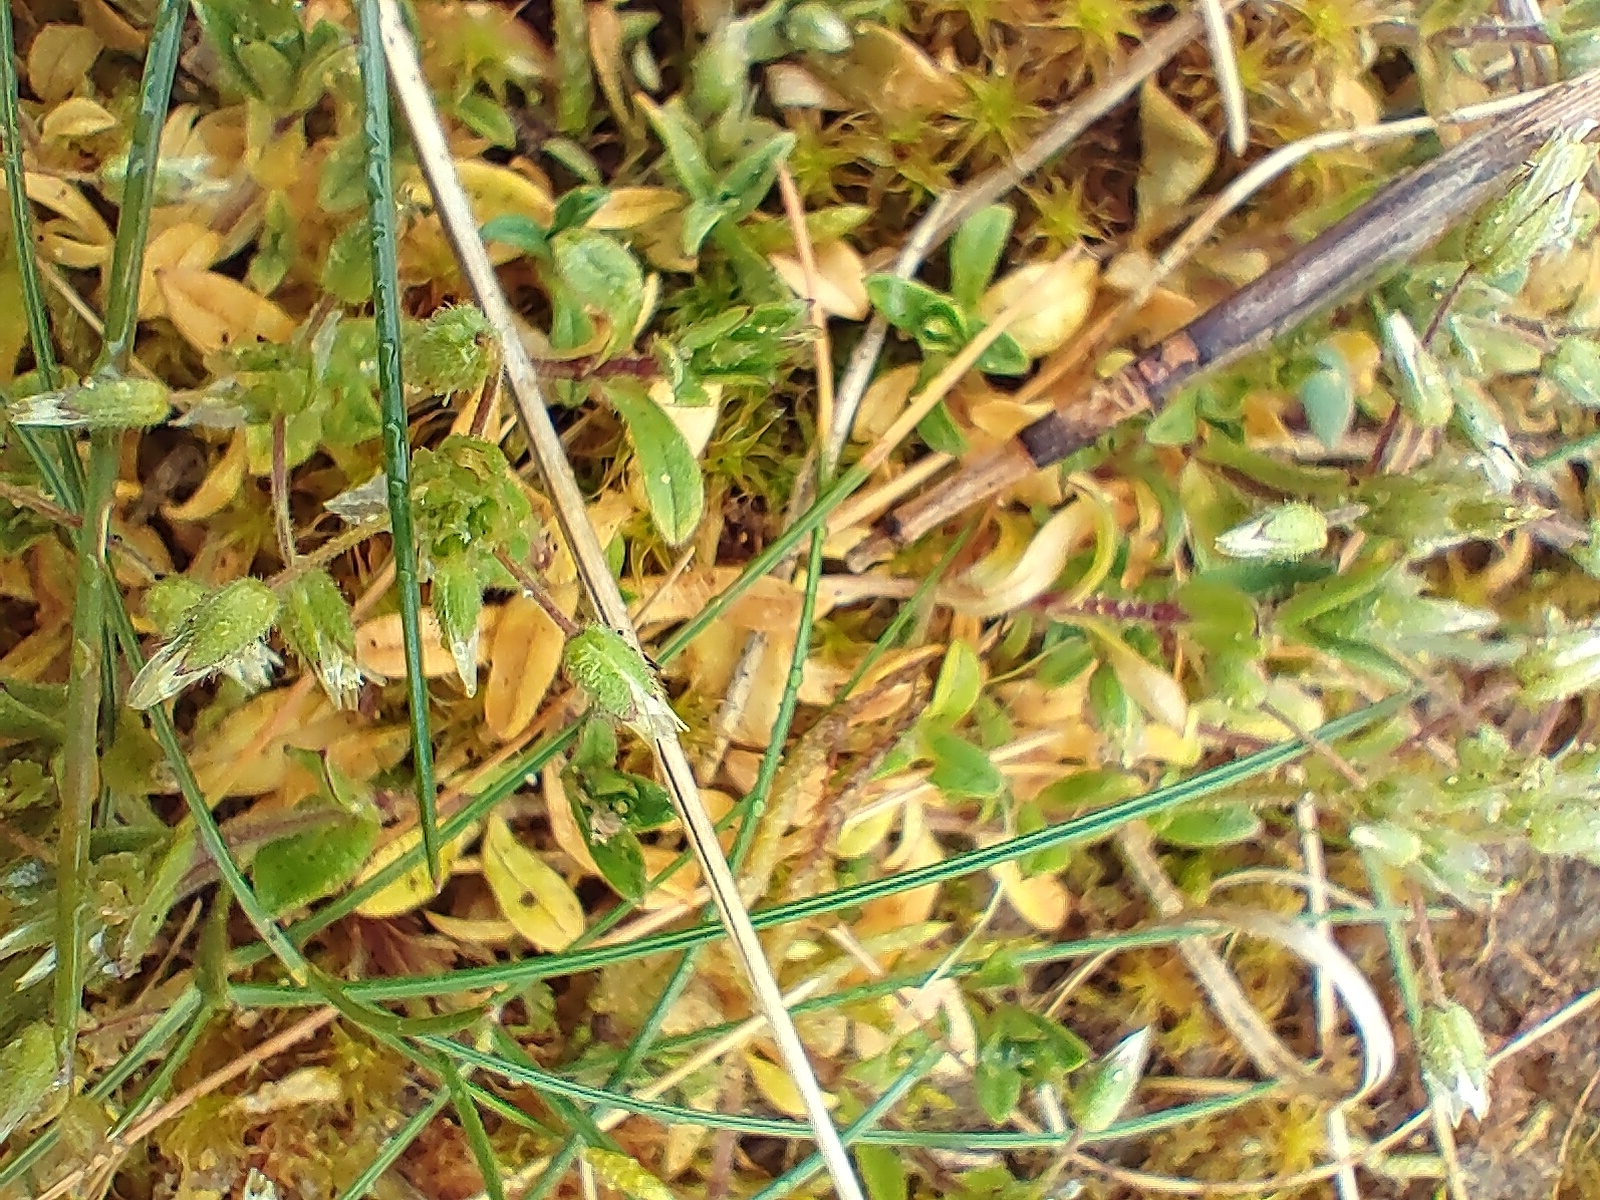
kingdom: Plantae
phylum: Tracheophyta
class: Magnoliopsida
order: Caryophyllales
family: Caryophyllaceae
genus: Cerastium
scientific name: Cerastium fontanum
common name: Common mouse-ear
